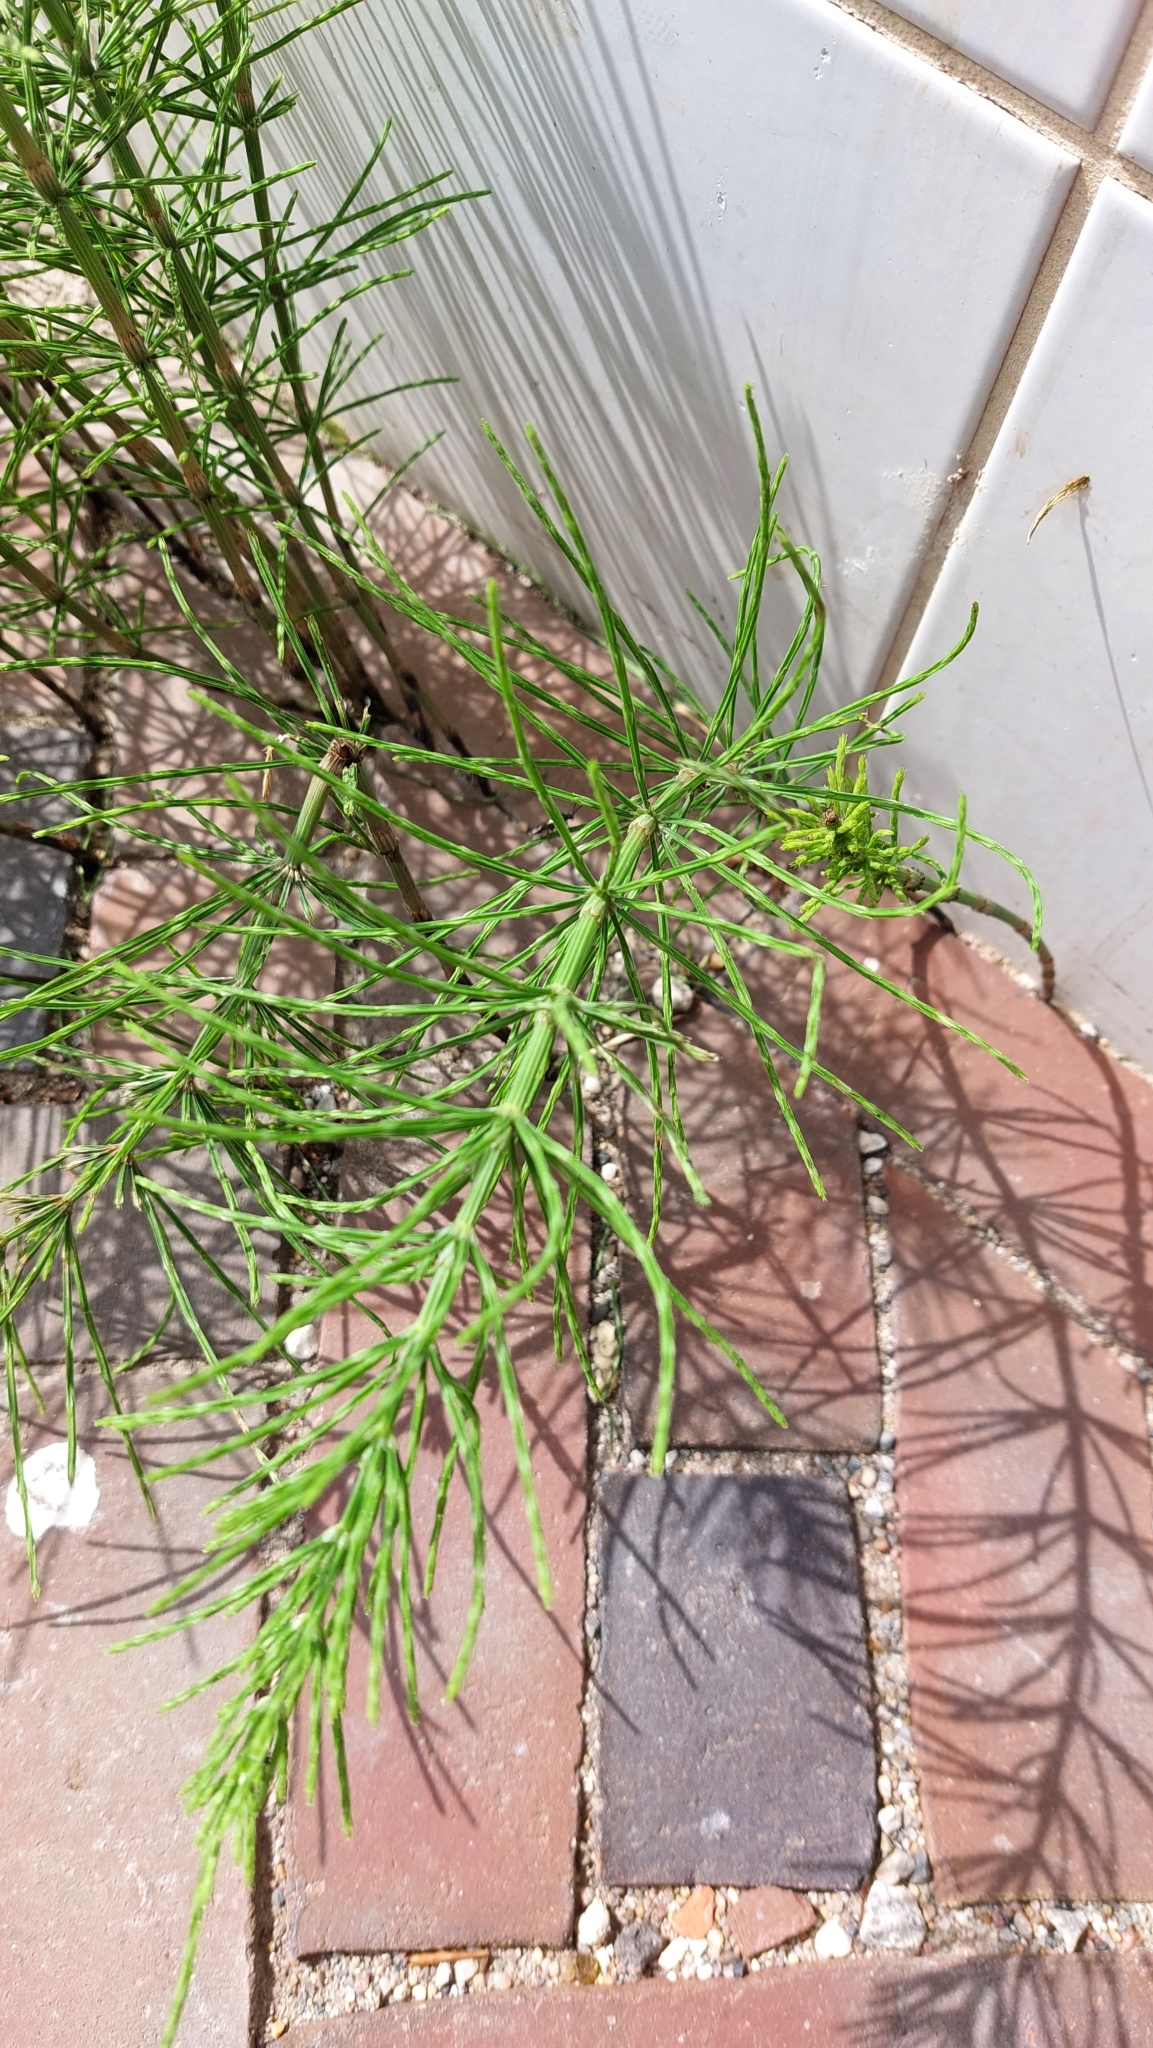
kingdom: Plantae
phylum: Tracheophyta
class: Polypodiopsida
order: Equisetales
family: Equisetaceae
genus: Equisetum
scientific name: Equisetum arvense
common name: Field horsetail
